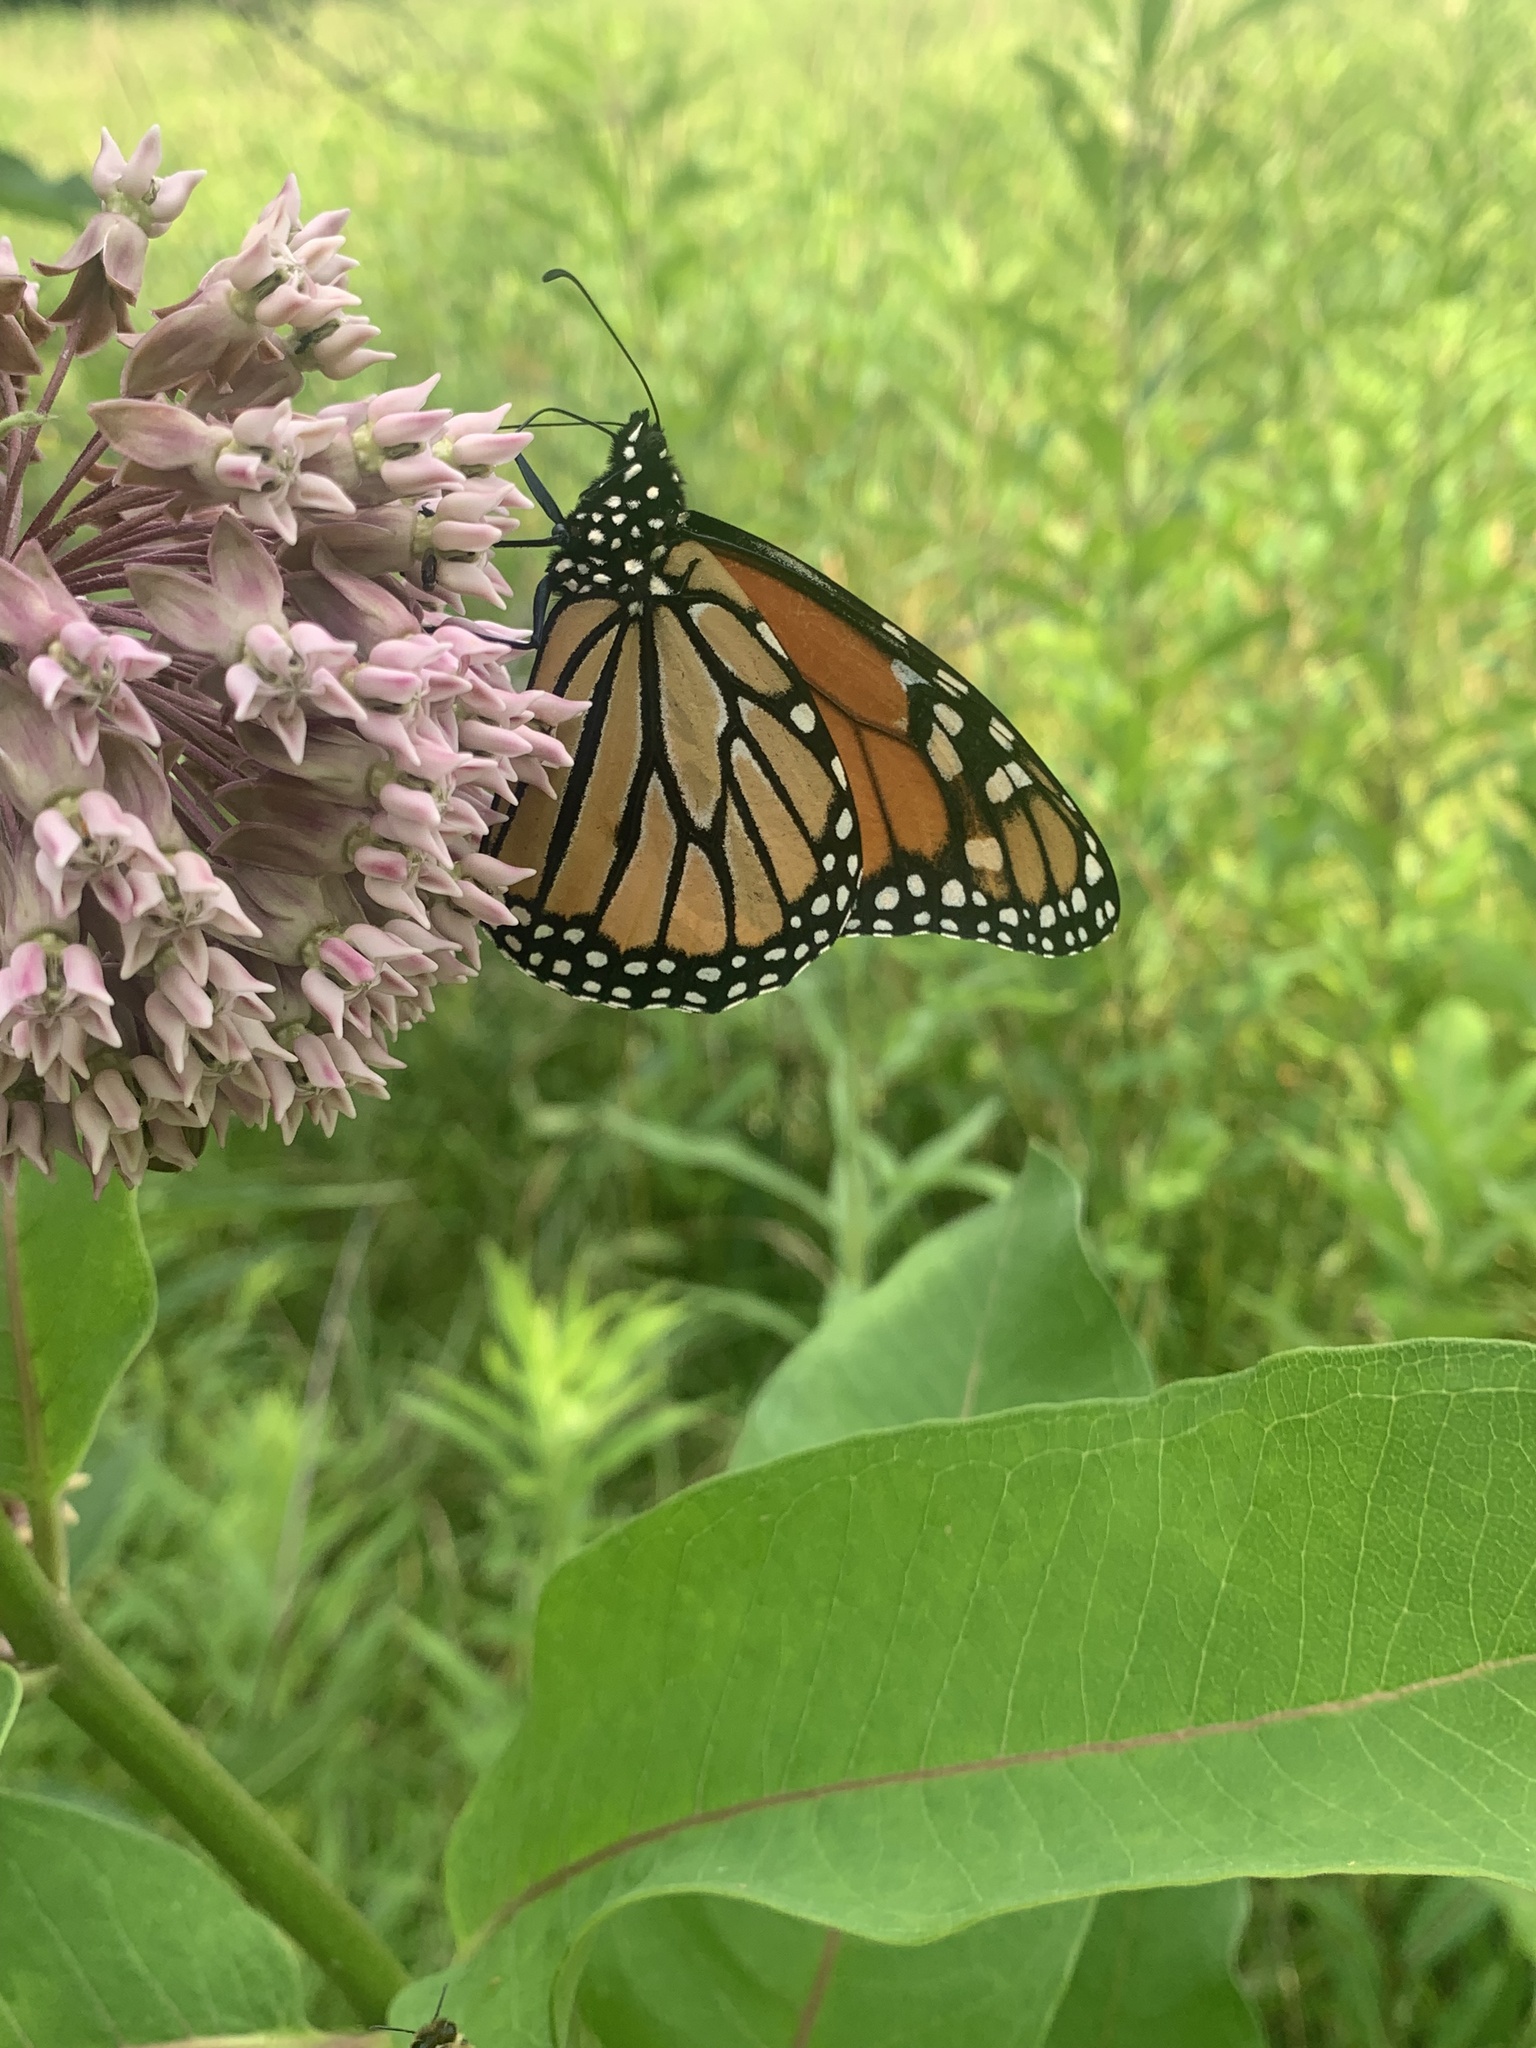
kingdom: Animalia
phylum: Arthropoda
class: Insecta
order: Lepidoptera
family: Nymphalidae
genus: Danaus
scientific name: Danaus plexippus
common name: Monarch
